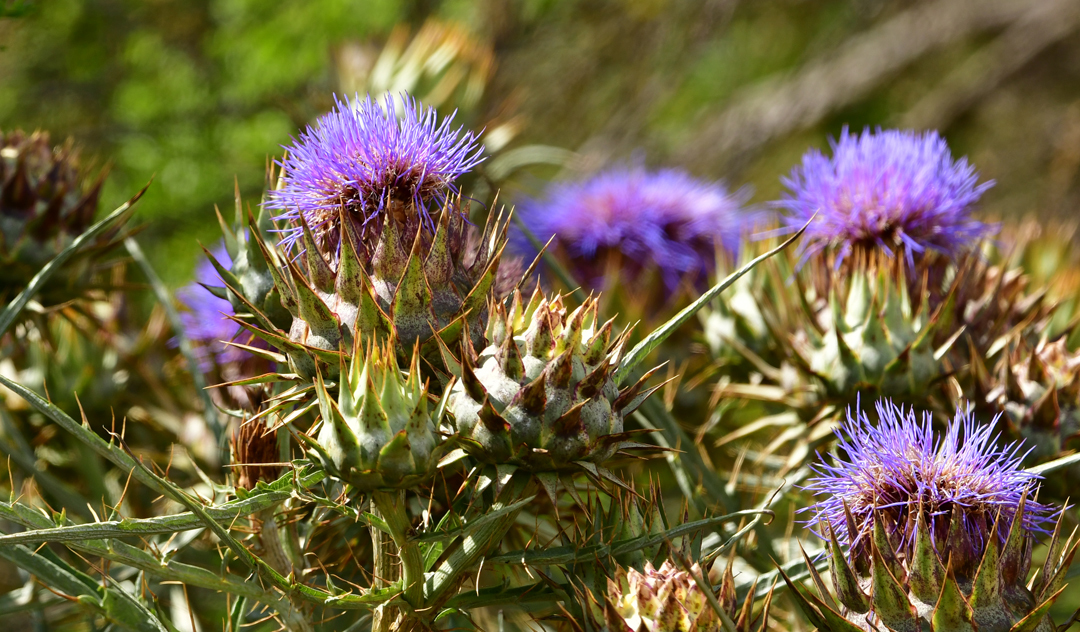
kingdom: Plantae
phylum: Tracheophyta
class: Magnoliopsida
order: Asterales
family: Asteraceae
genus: Cynara
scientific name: Cynara cardunculus
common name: Globe artichoke
